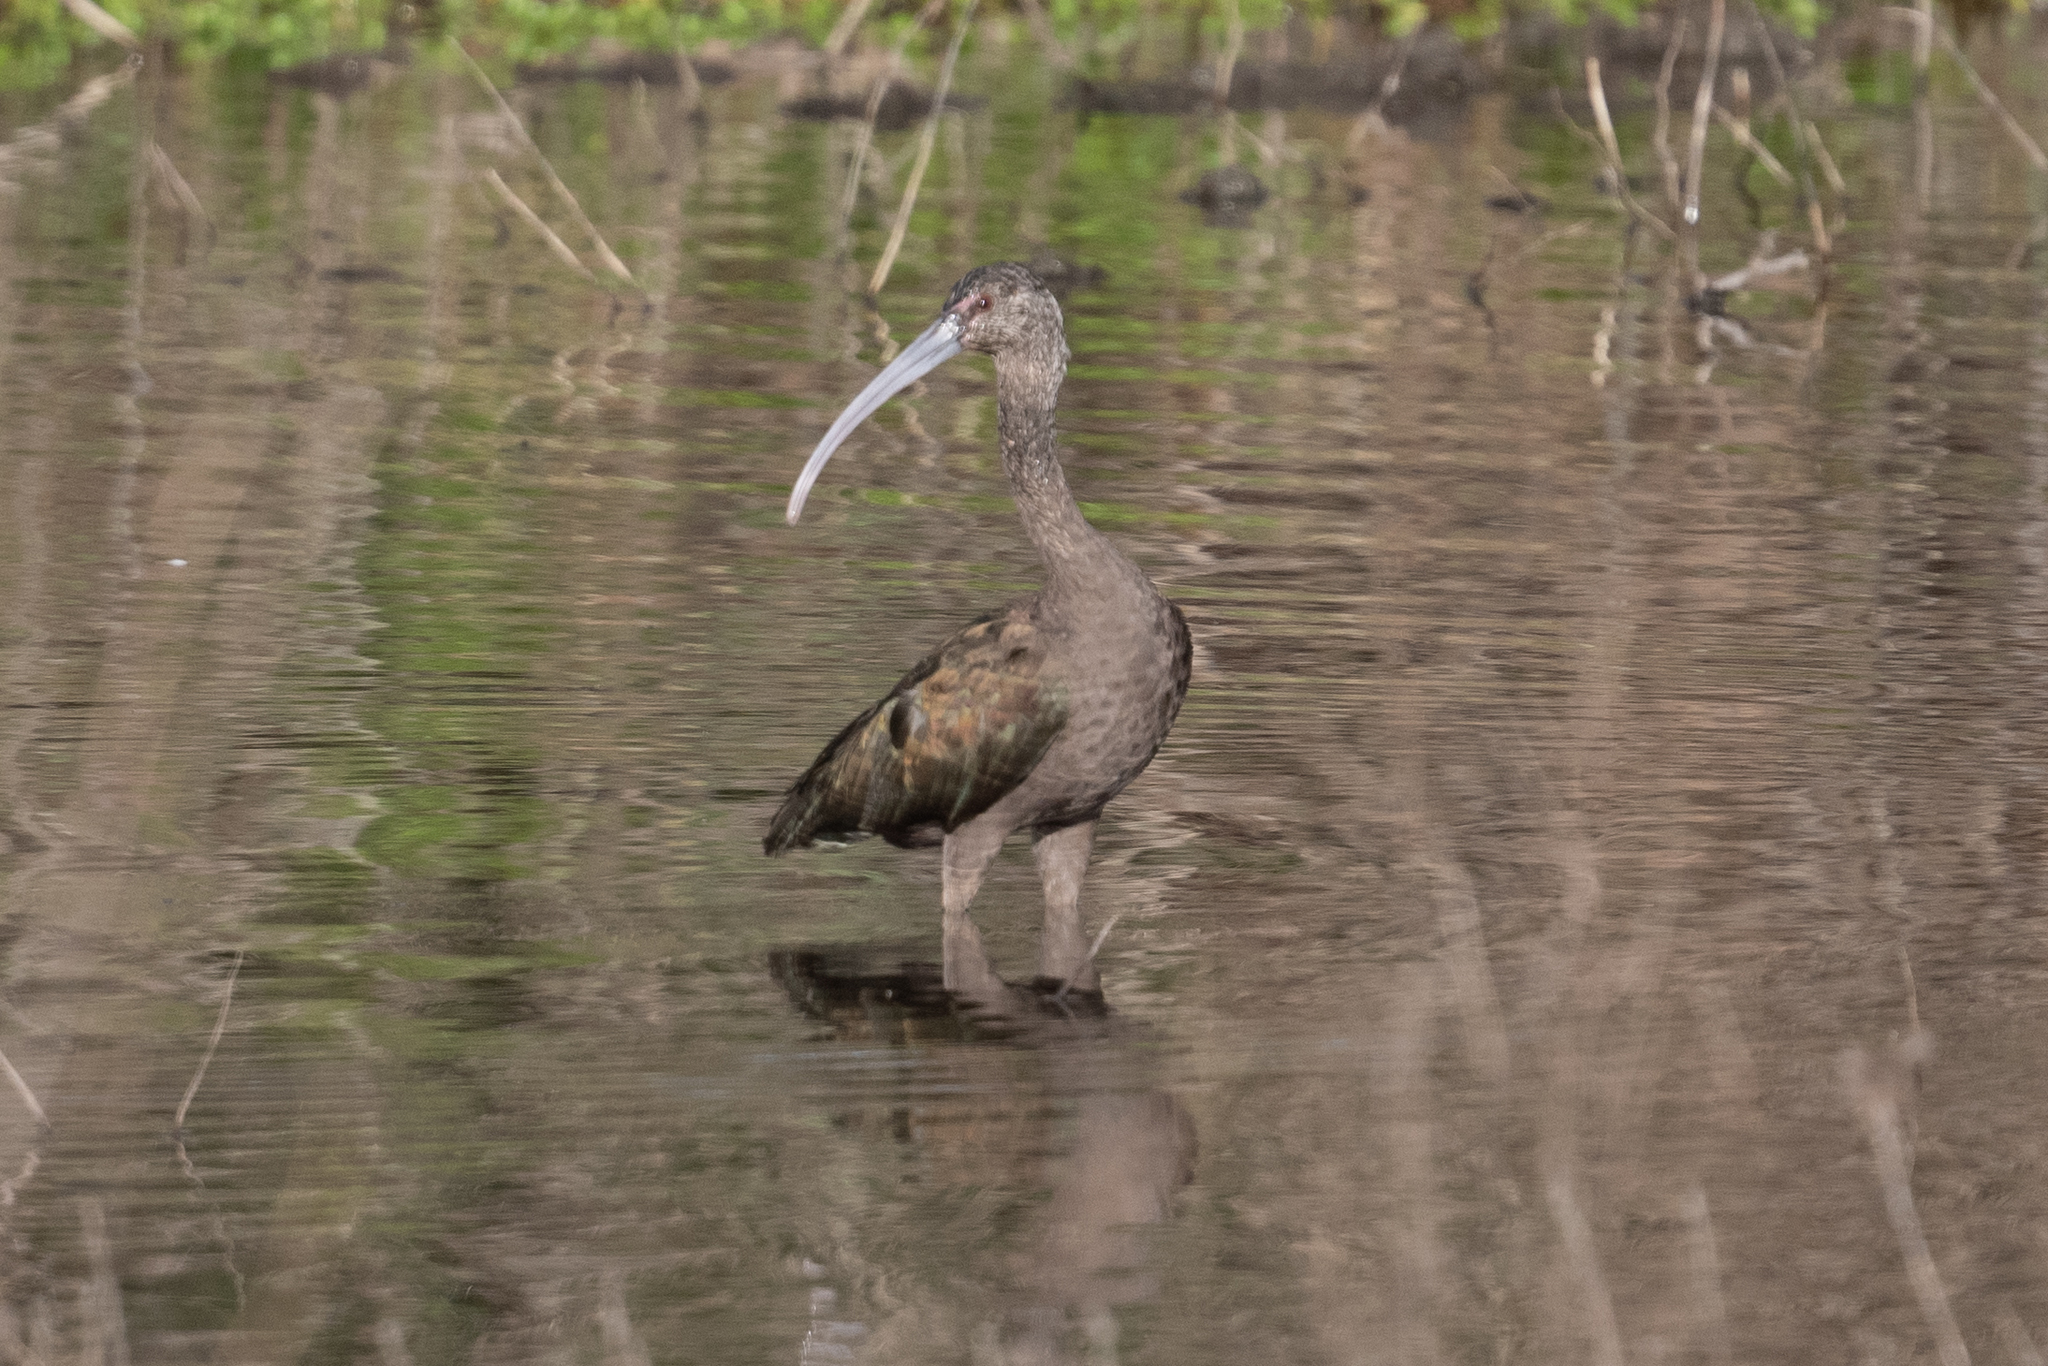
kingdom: Animalia
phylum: Chordata
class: Aves
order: Pelecaniformes
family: Threskiornithidae
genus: Plegadis
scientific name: Plegadis chihi
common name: White-faced ibis
